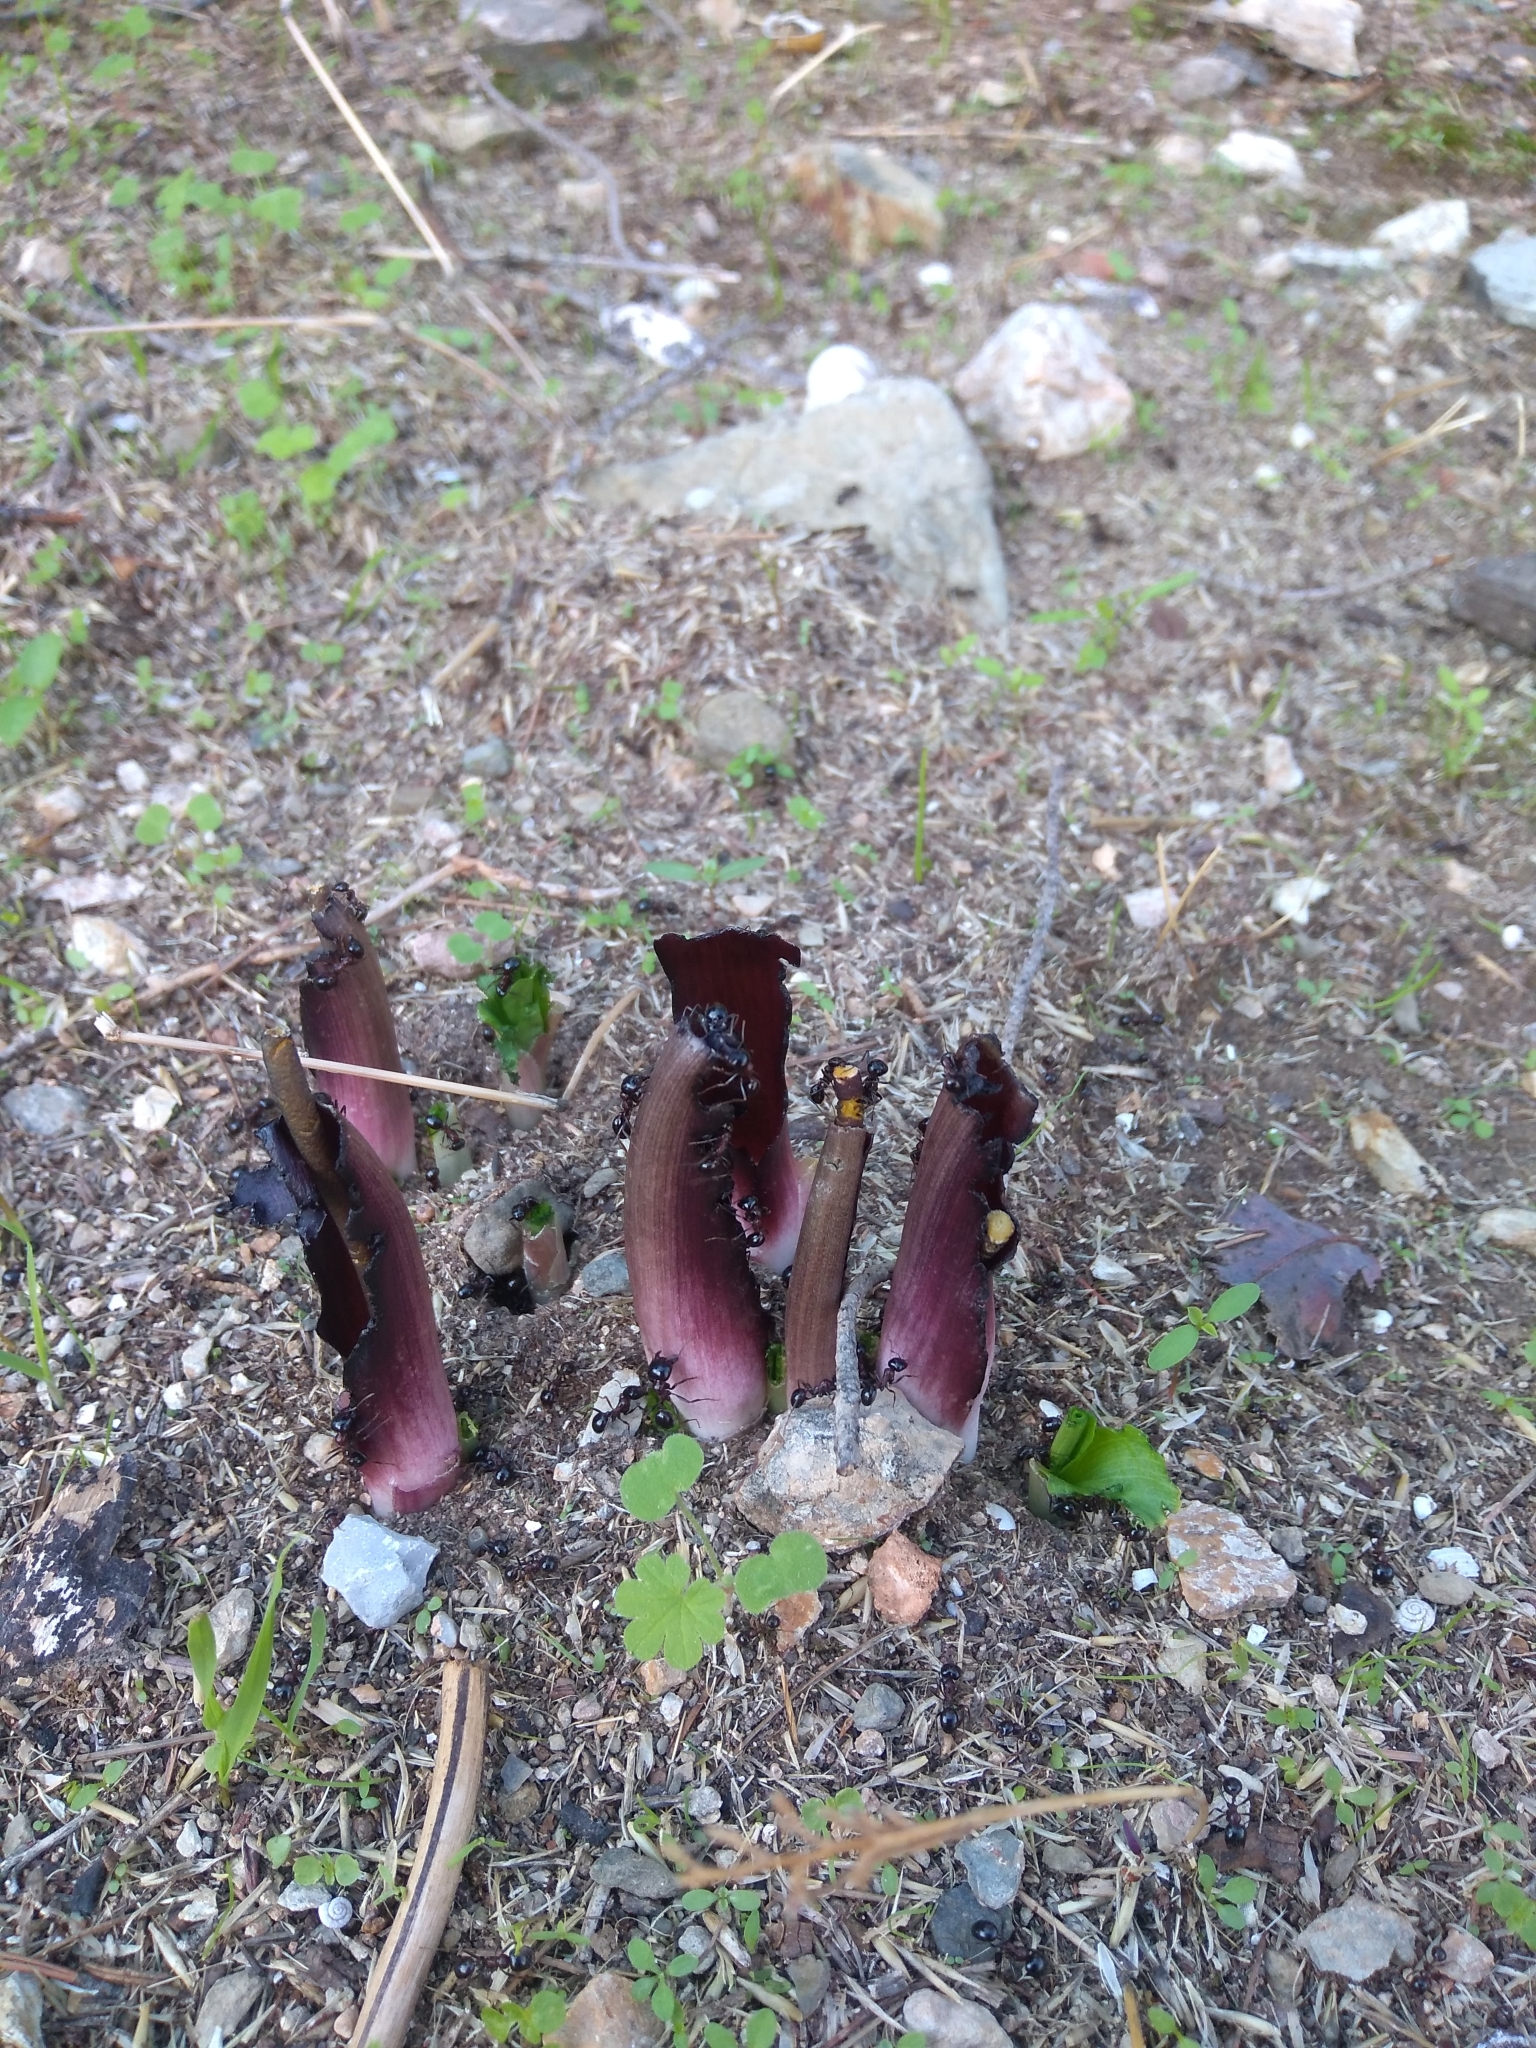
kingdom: Plantae
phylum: Tracheophyta
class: Liliopsida
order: Alismatales
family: Araceae
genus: Biarum
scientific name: Biarum tenuifolium
